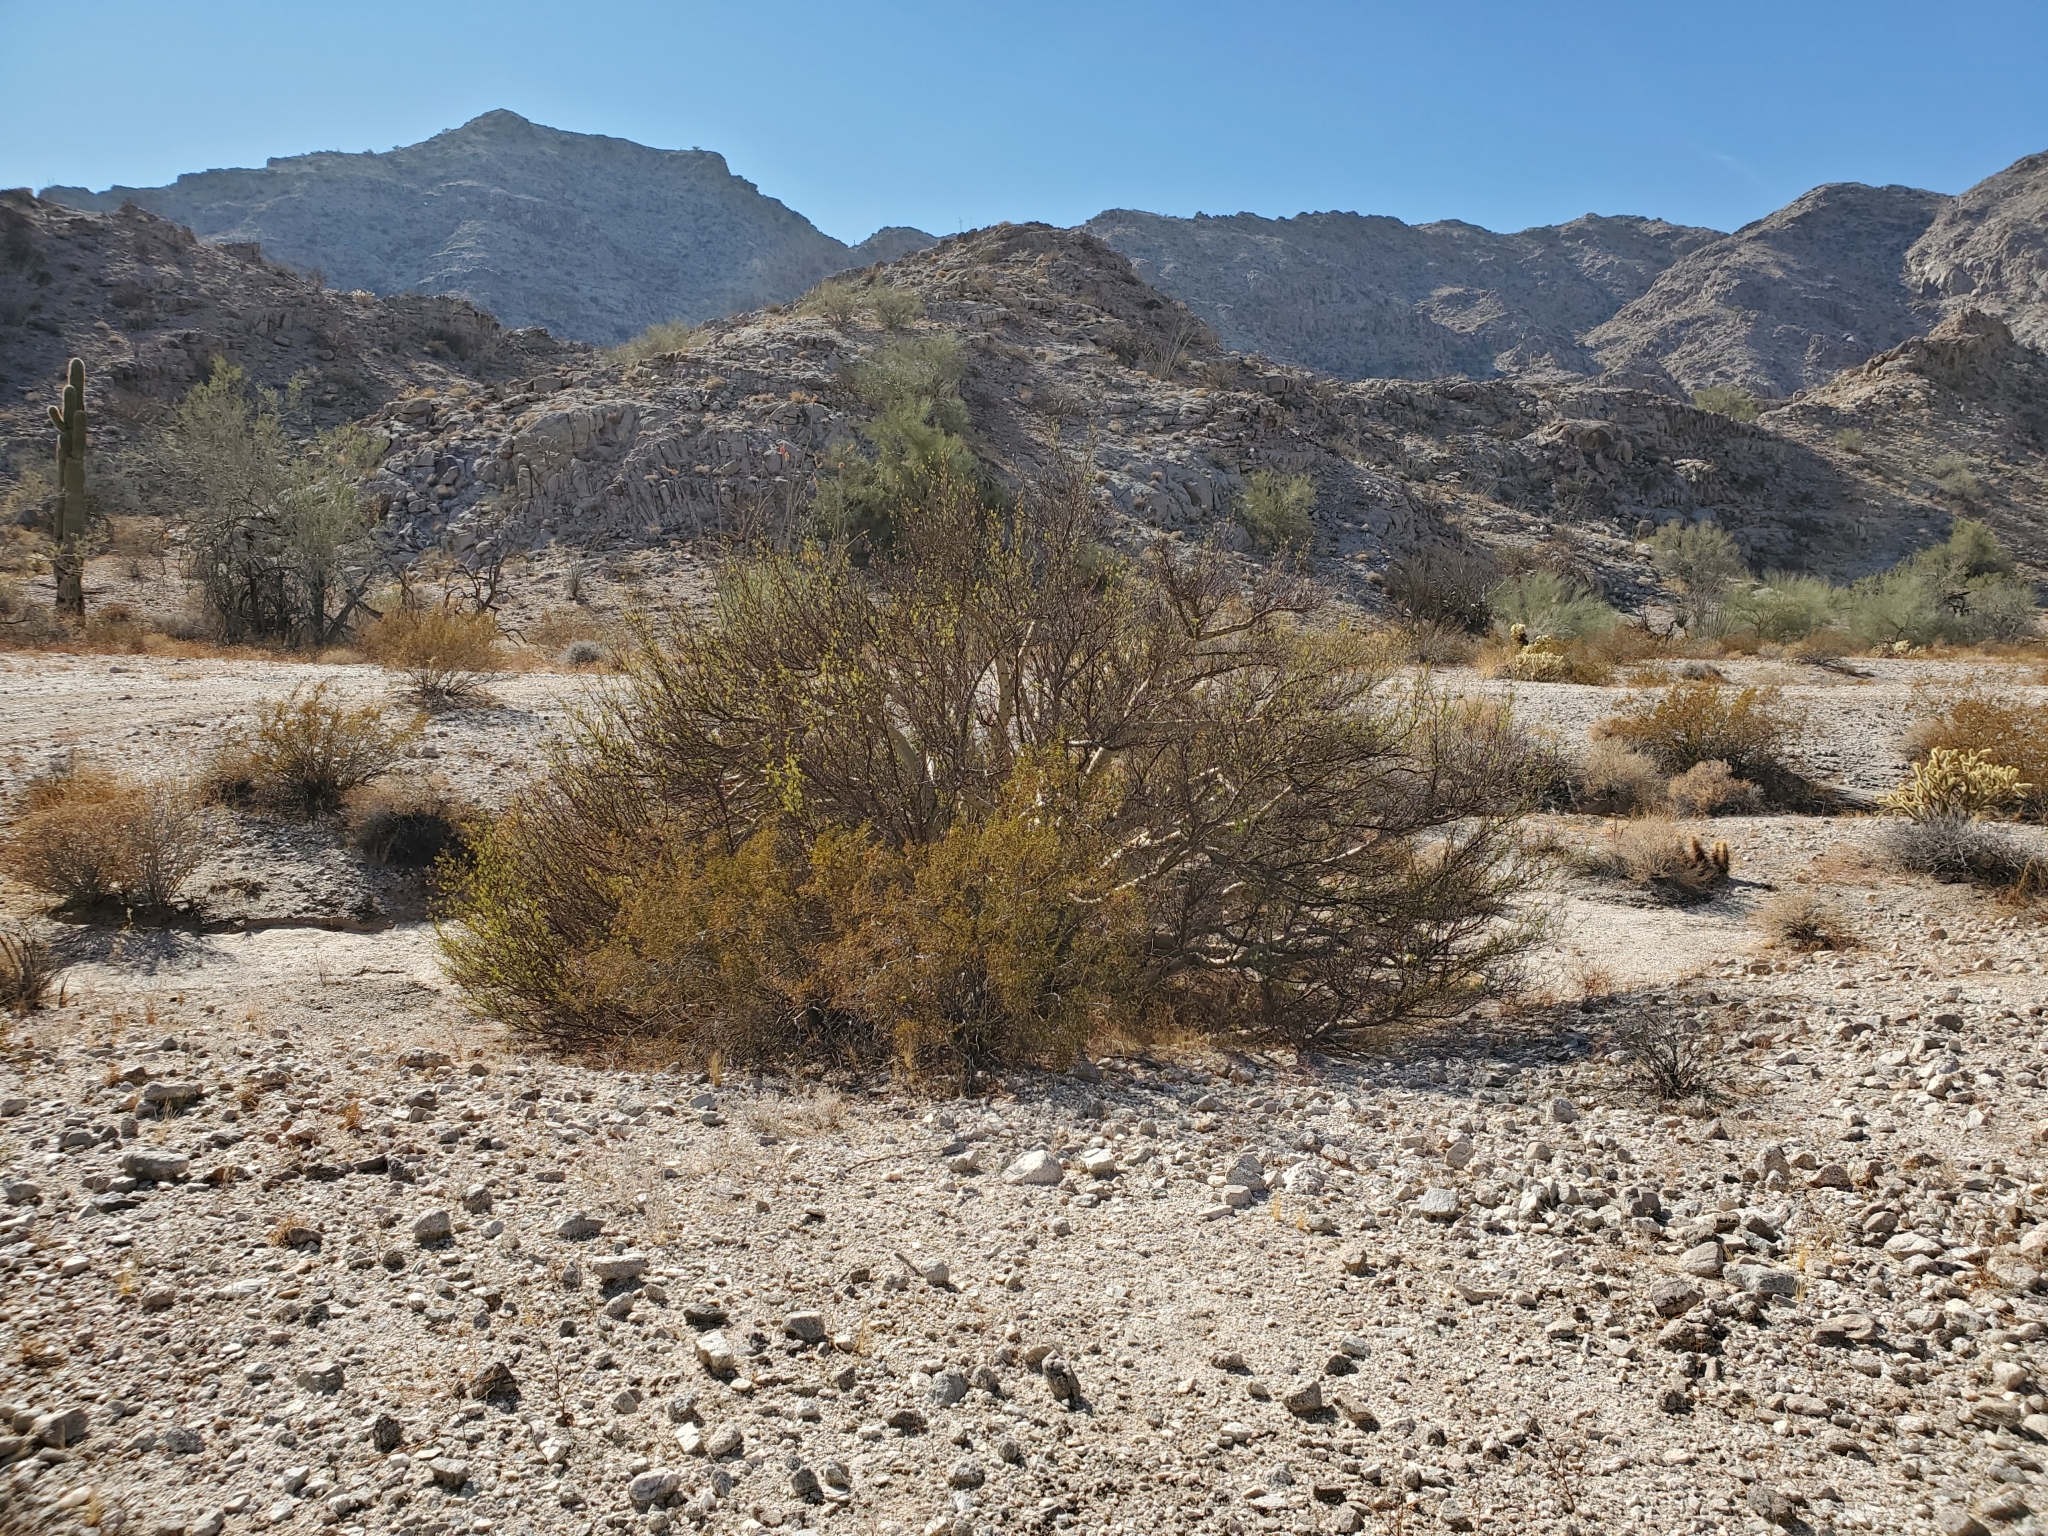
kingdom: Plantae
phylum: Tracheophyta
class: Magnoliopsida
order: Sapindales
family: Burseraceae
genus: Bursera
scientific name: Bursera microphylla
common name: Elephant tree
